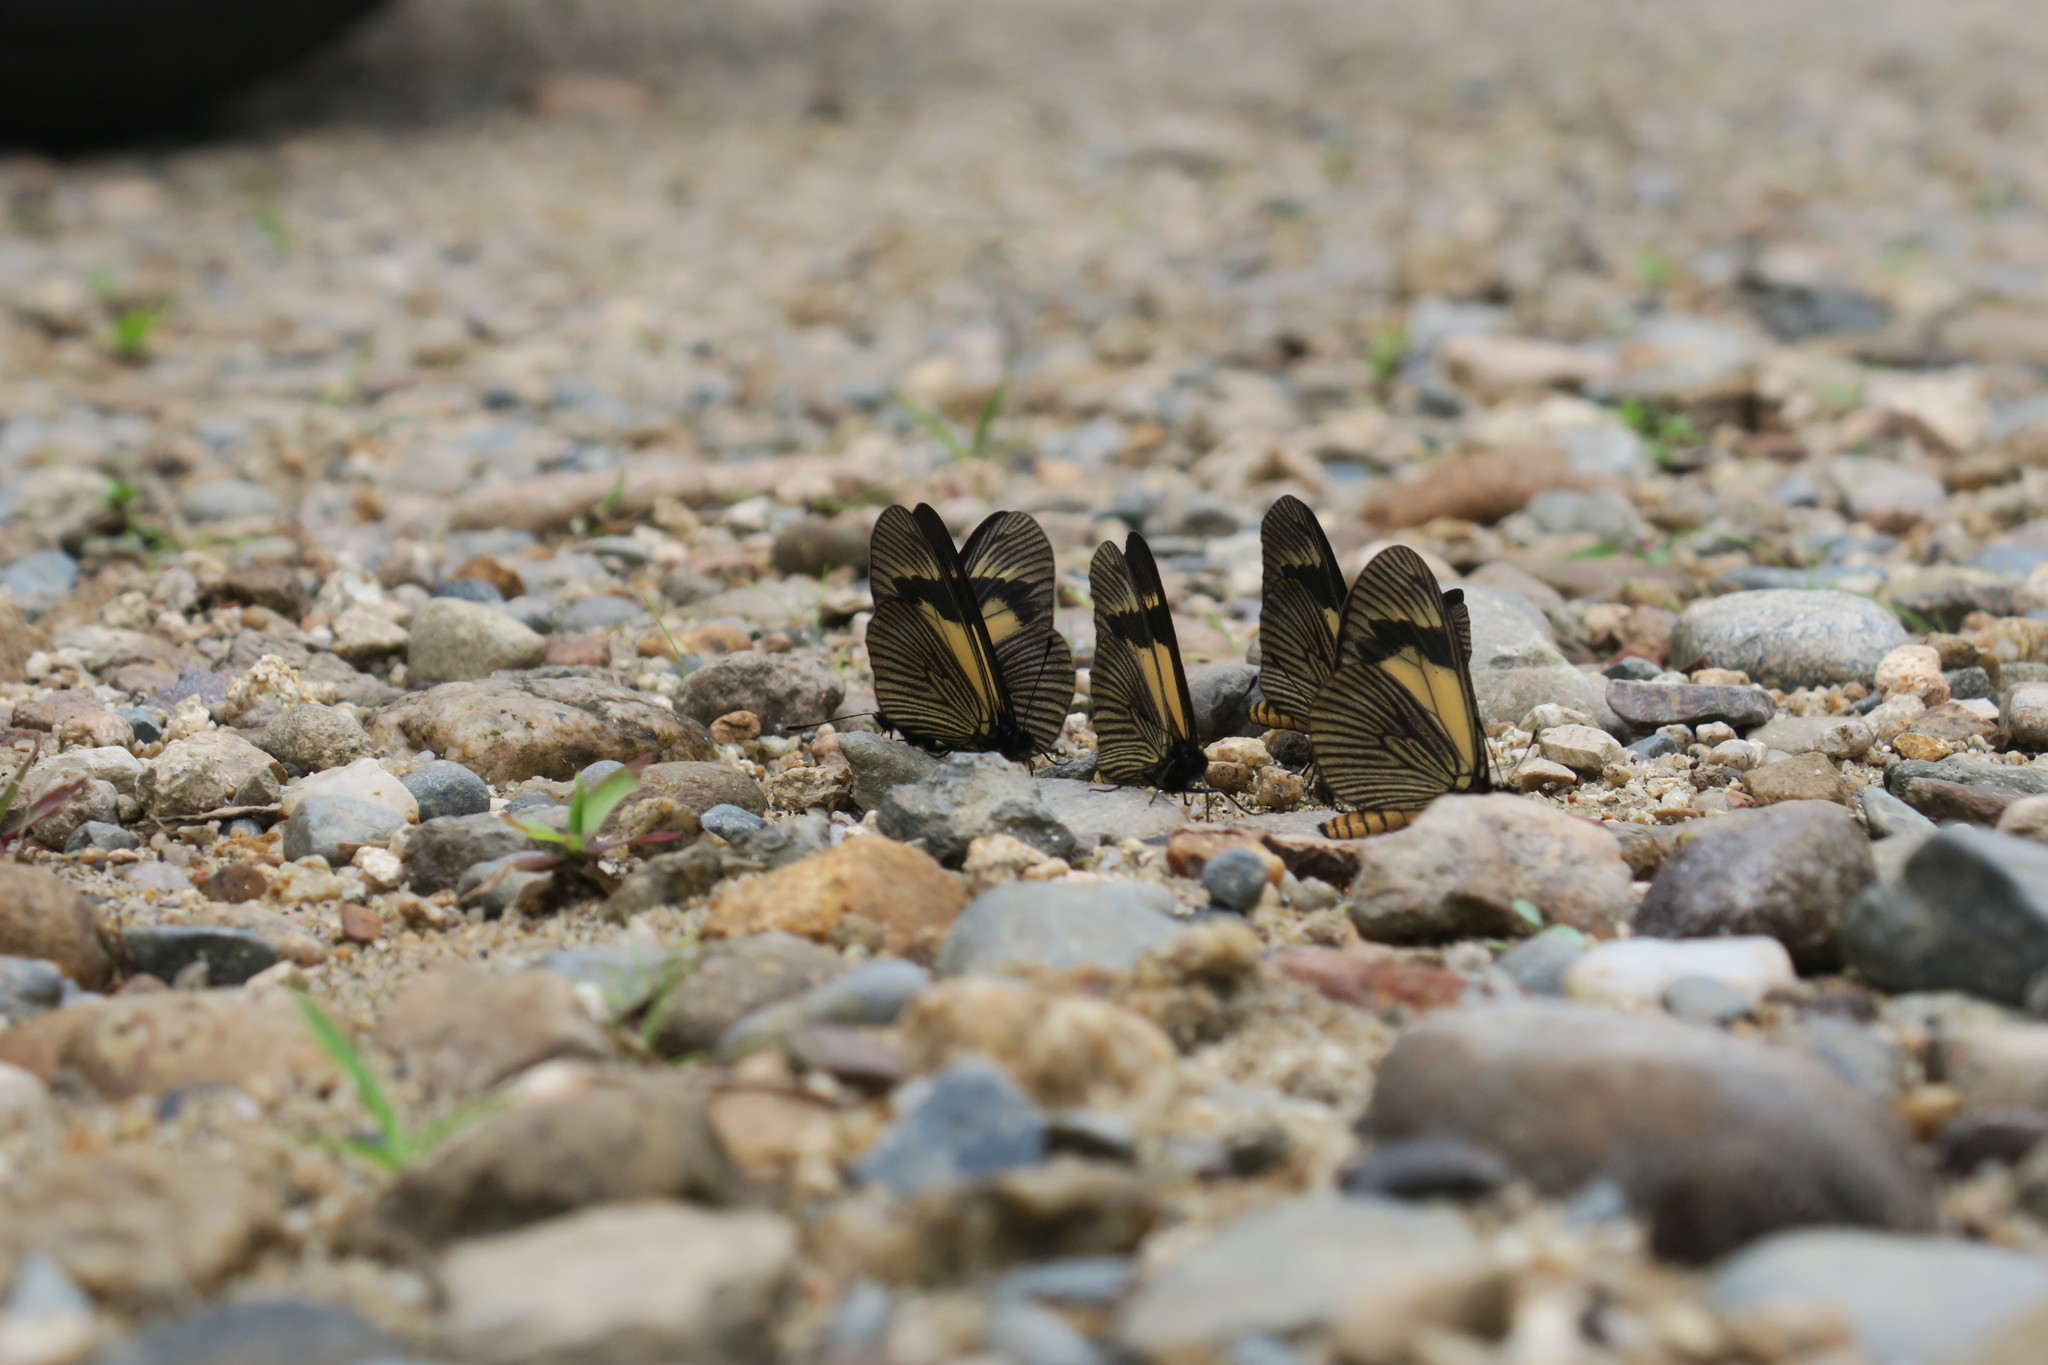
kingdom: Animalia
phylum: Arthropoda
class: Insecta
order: Lepidoptera
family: Nymphalidae
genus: Actinote
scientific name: Actinote alcione
